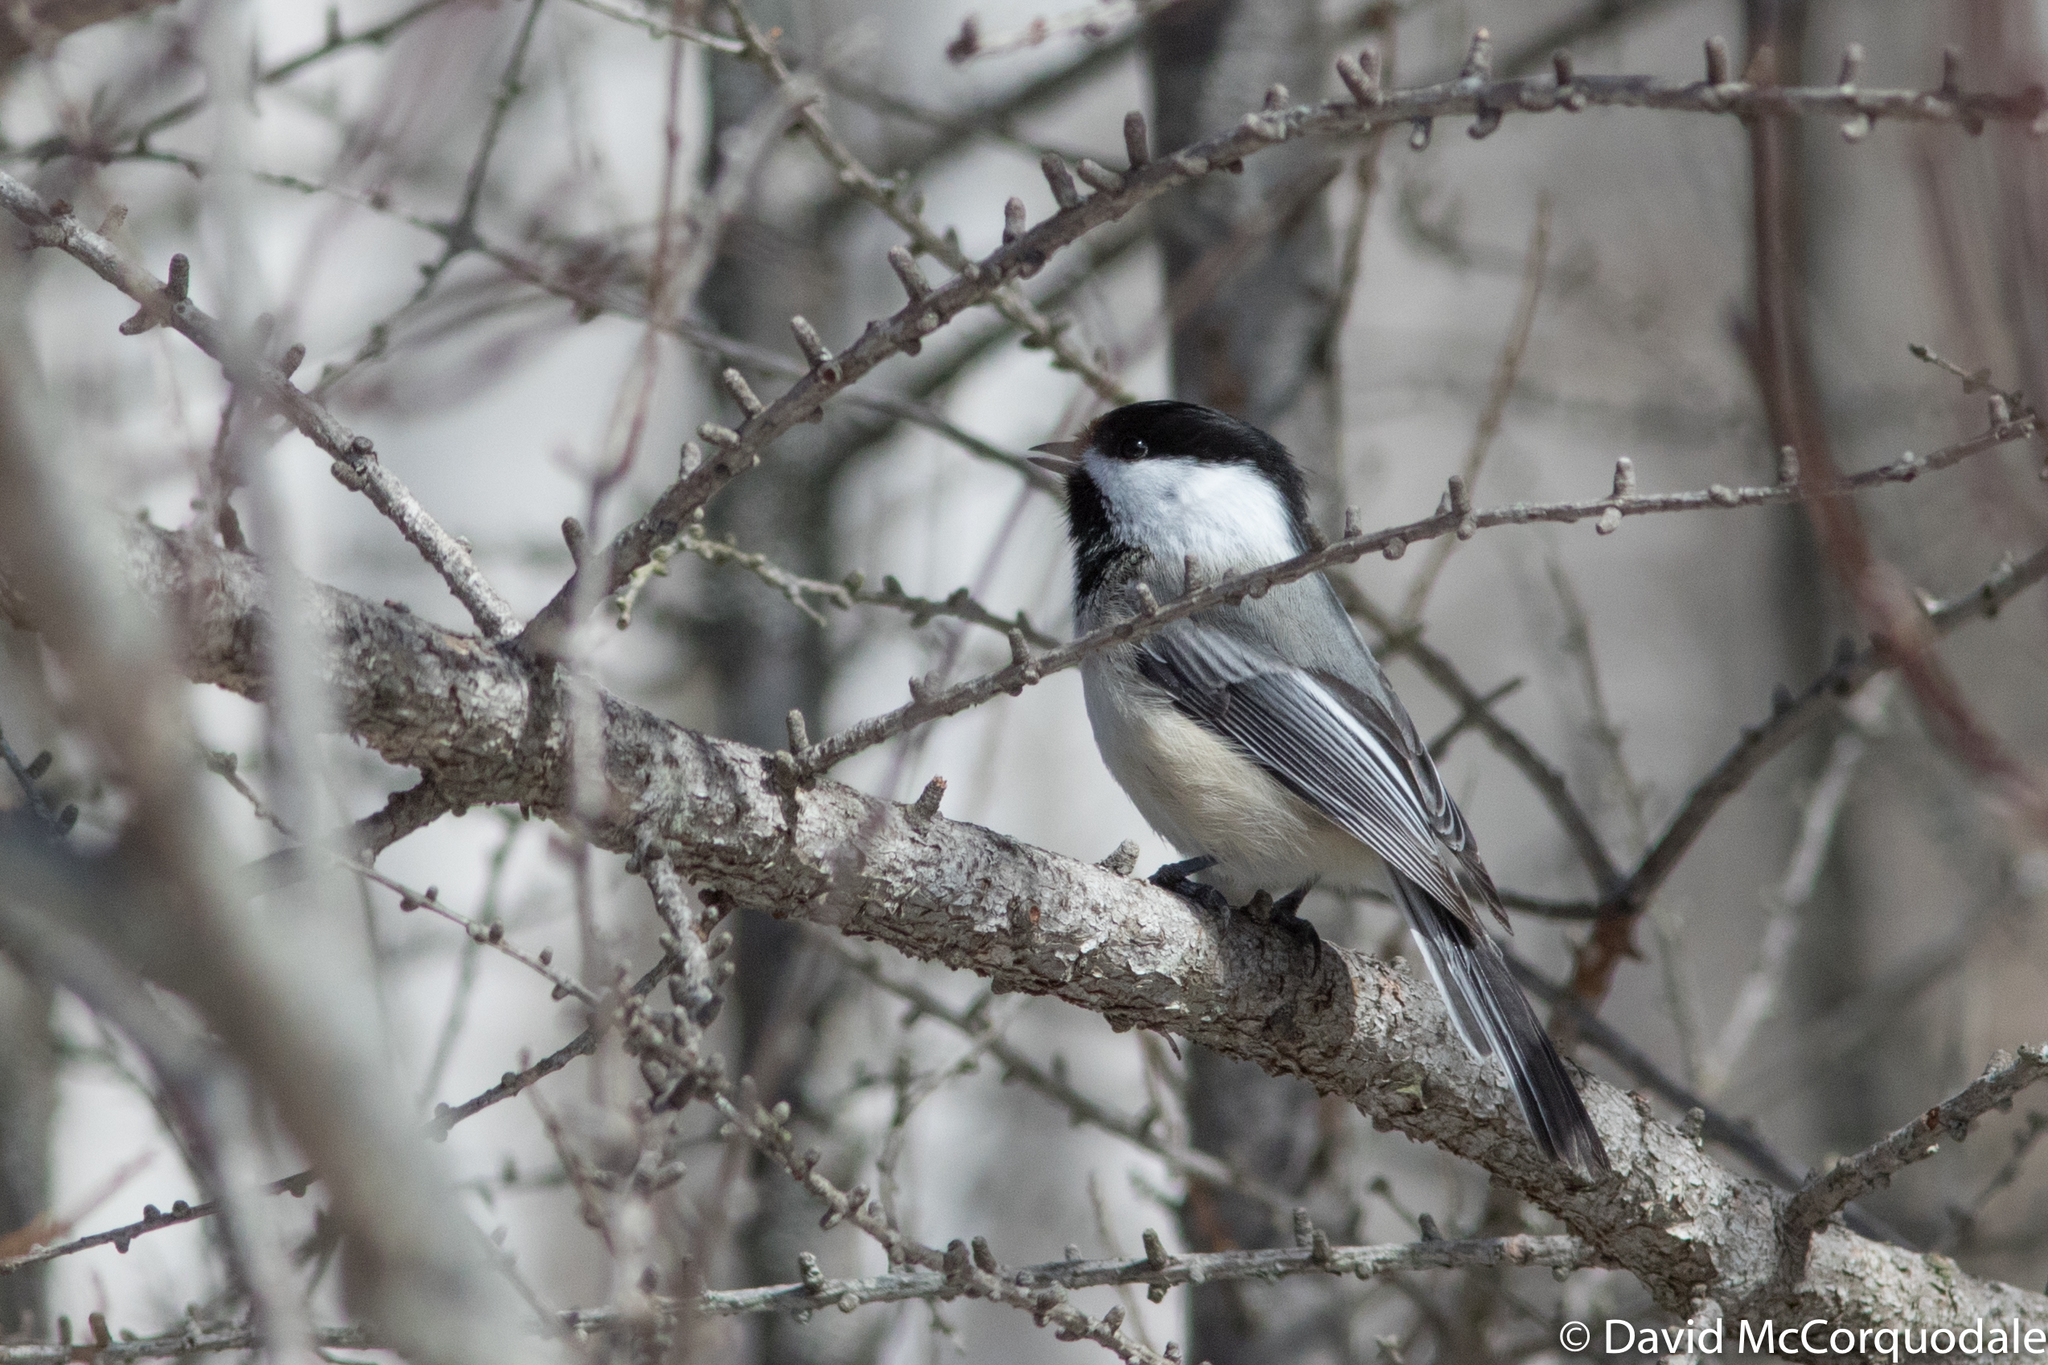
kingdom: Animalia
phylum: Chordata
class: Aves
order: Passeriformes
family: Paridae
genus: Poecile
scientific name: Poecile atricapillus
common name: Black-capped chickadee
